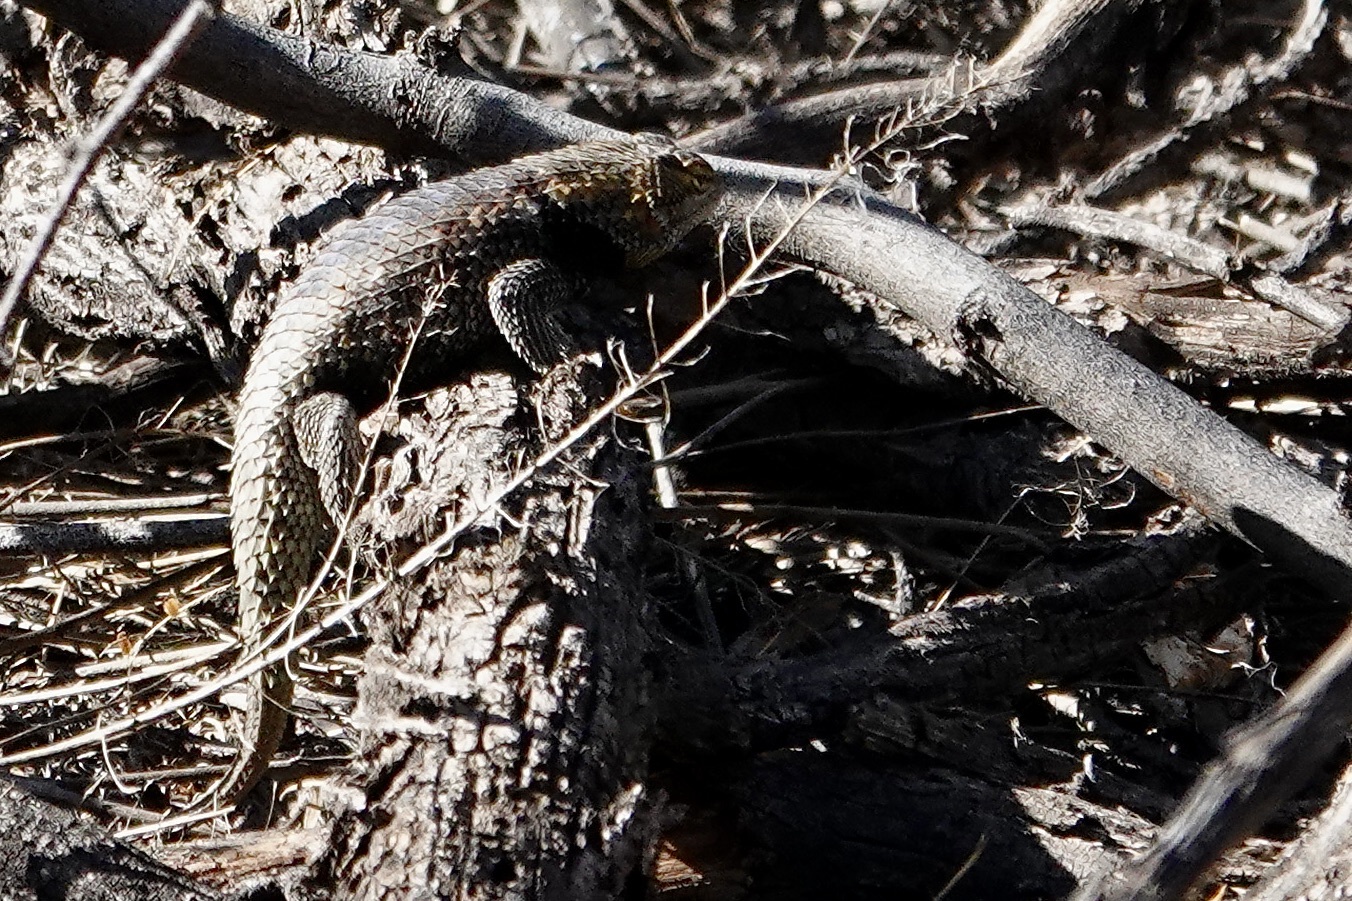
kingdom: Animalia
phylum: Chordata
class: Squamata
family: Phrynosomatidae
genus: Sceloporus
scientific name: Sceloporus bimaculosus
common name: Twin-spotted spiny lizard
